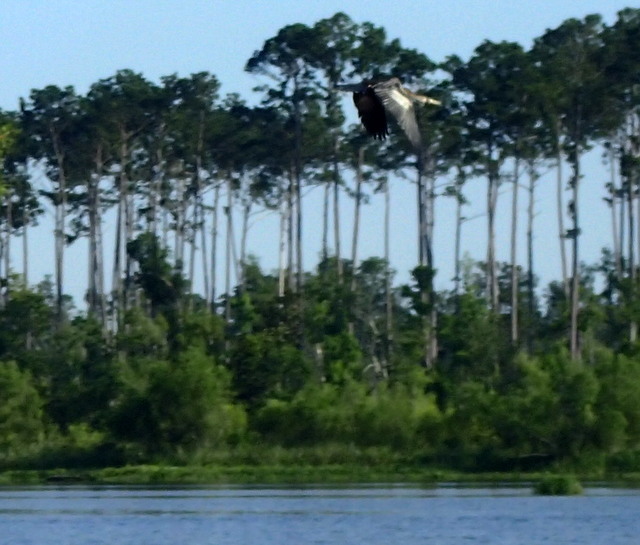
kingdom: Animalia
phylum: Chordata
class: Aves
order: Suliformes
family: Anhingidae
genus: Anhinga
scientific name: Anhinga anhinga
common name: Anhinga
